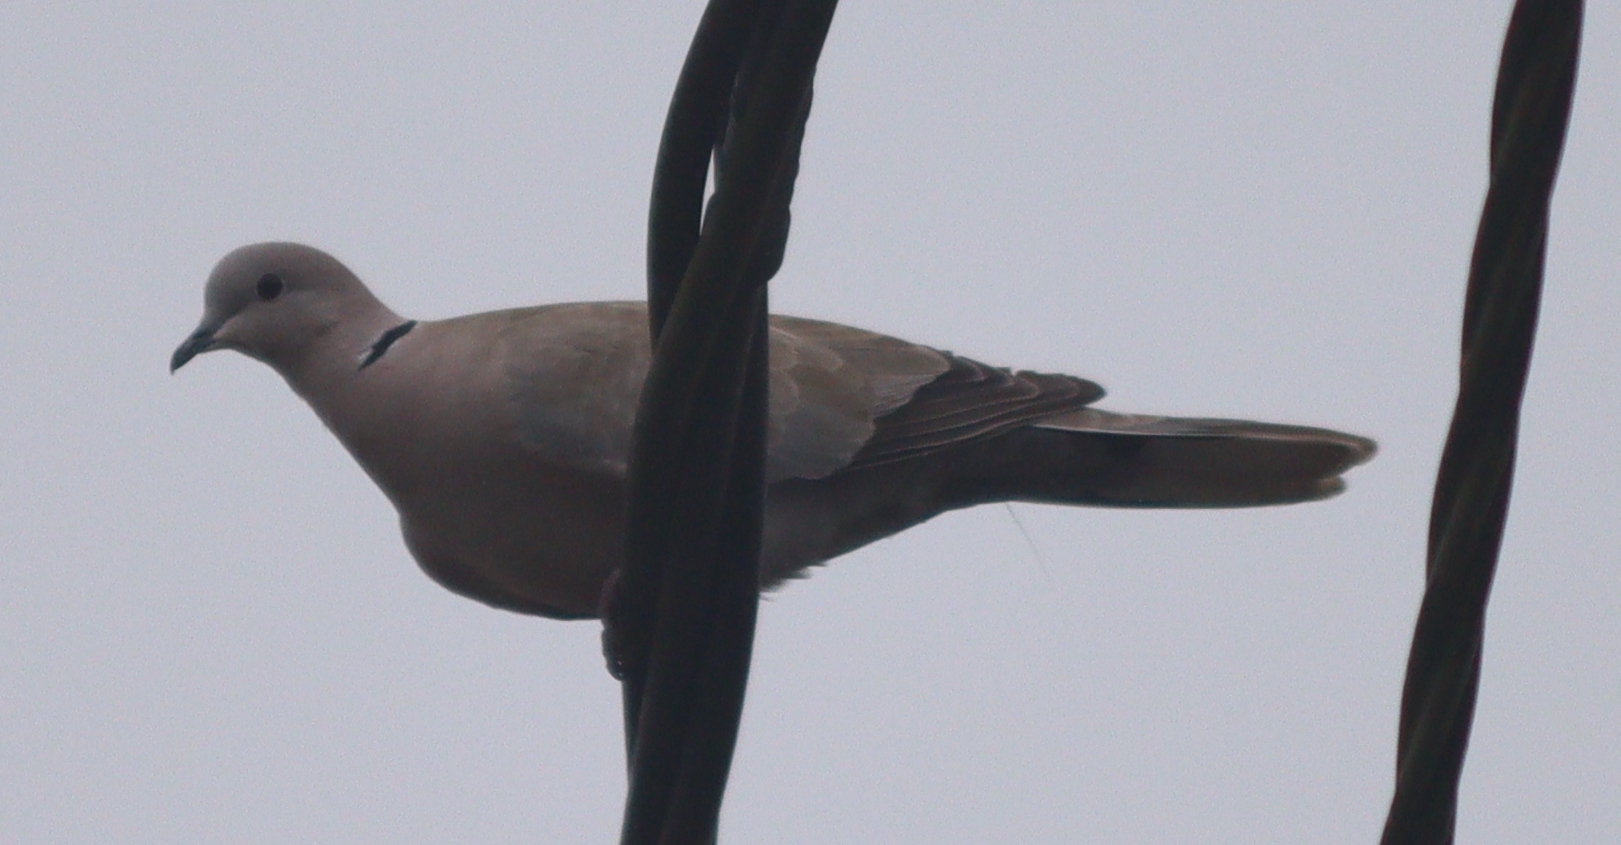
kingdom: Animalia
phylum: Chordata
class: Aves
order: Columbiformes
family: Columbidae
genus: Streptopelia
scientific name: Streptopelia decaocto
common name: Eurasian collared dove
